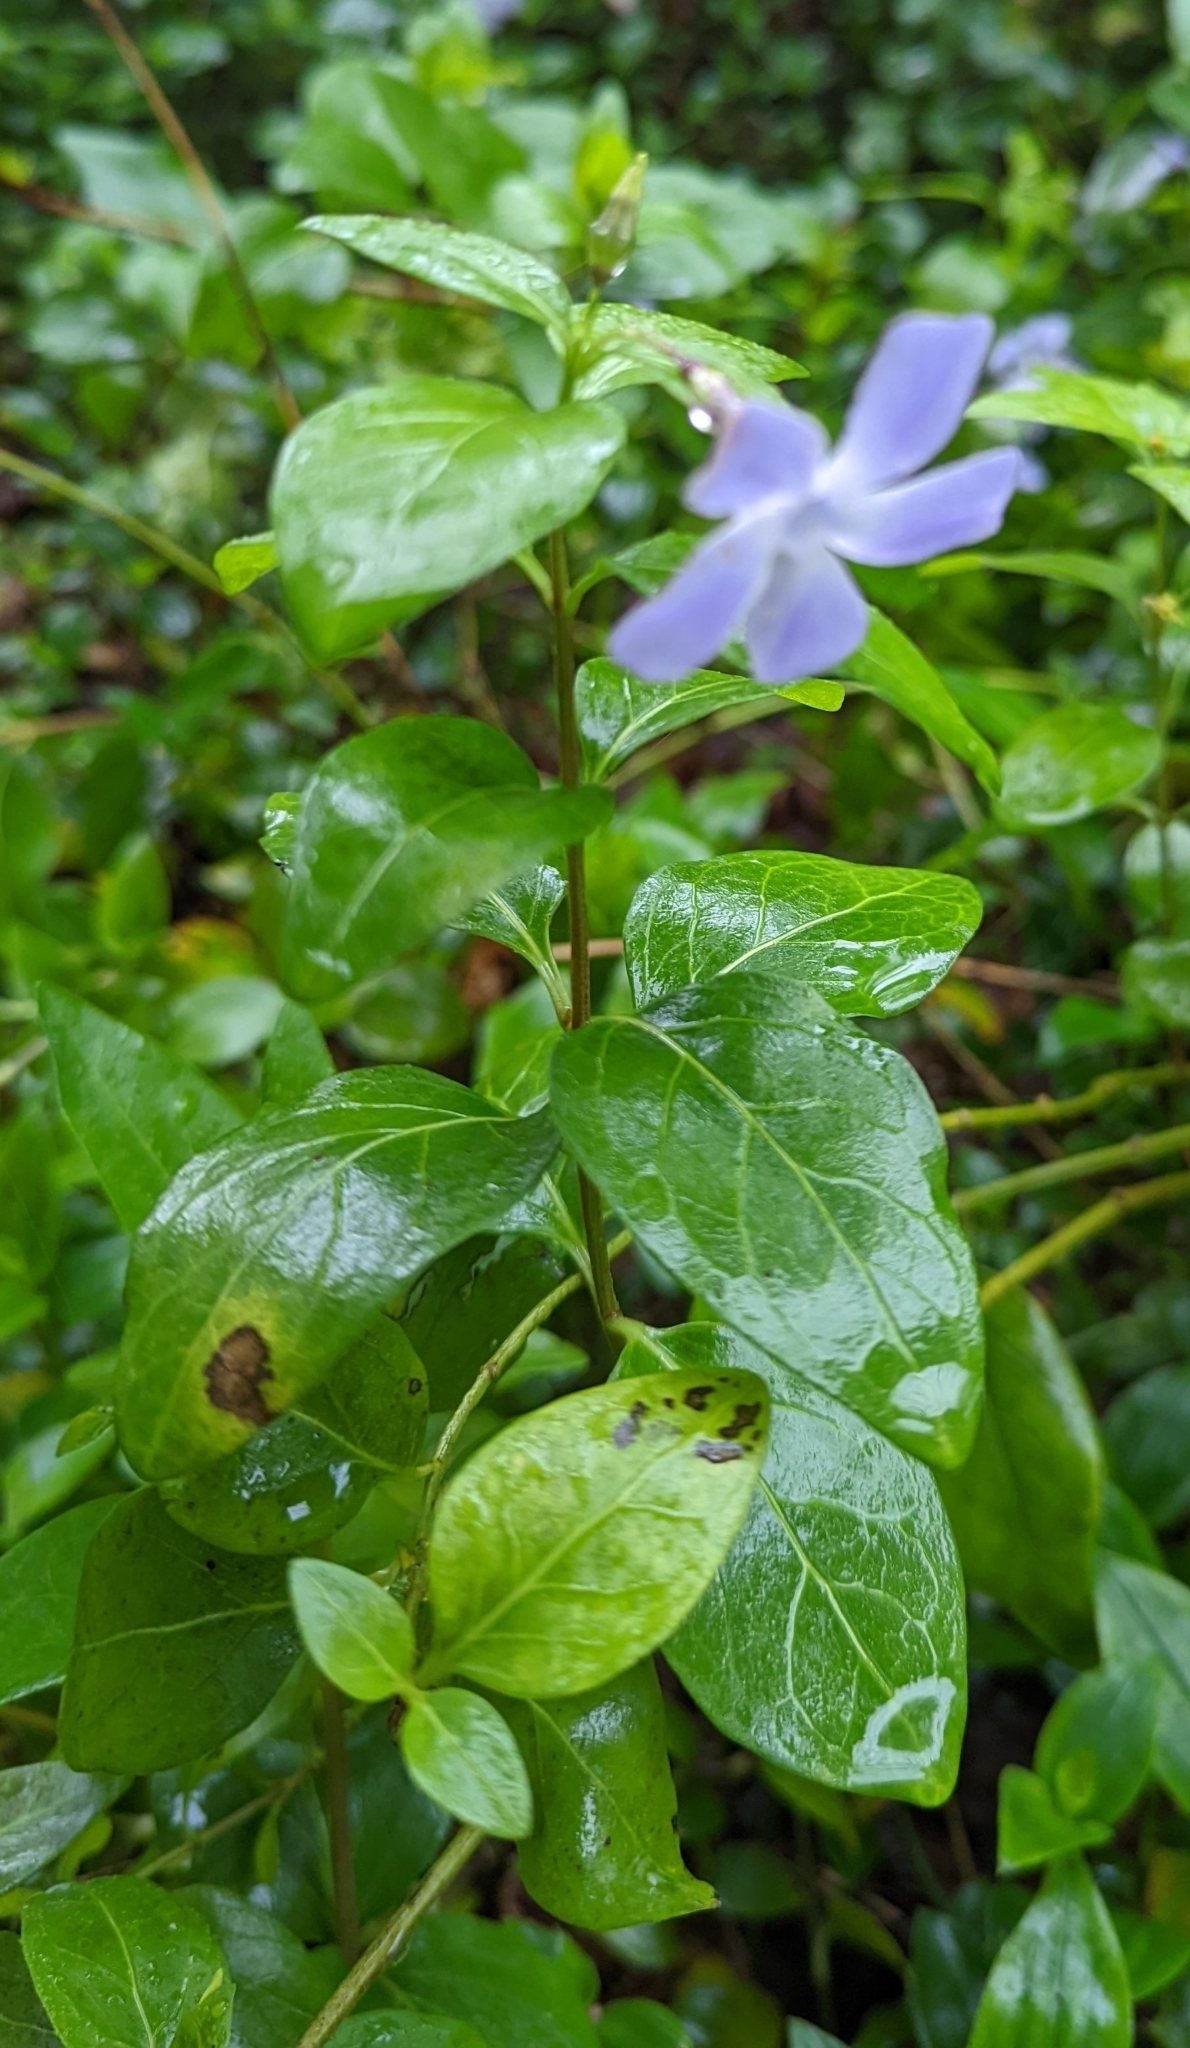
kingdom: Plantae
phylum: Tracheophyta
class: Magnoliopsida
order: Gentianales
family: Apocynaceae
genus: Vinca
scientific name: Vinca difformis
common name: Intermediate periwinkle
